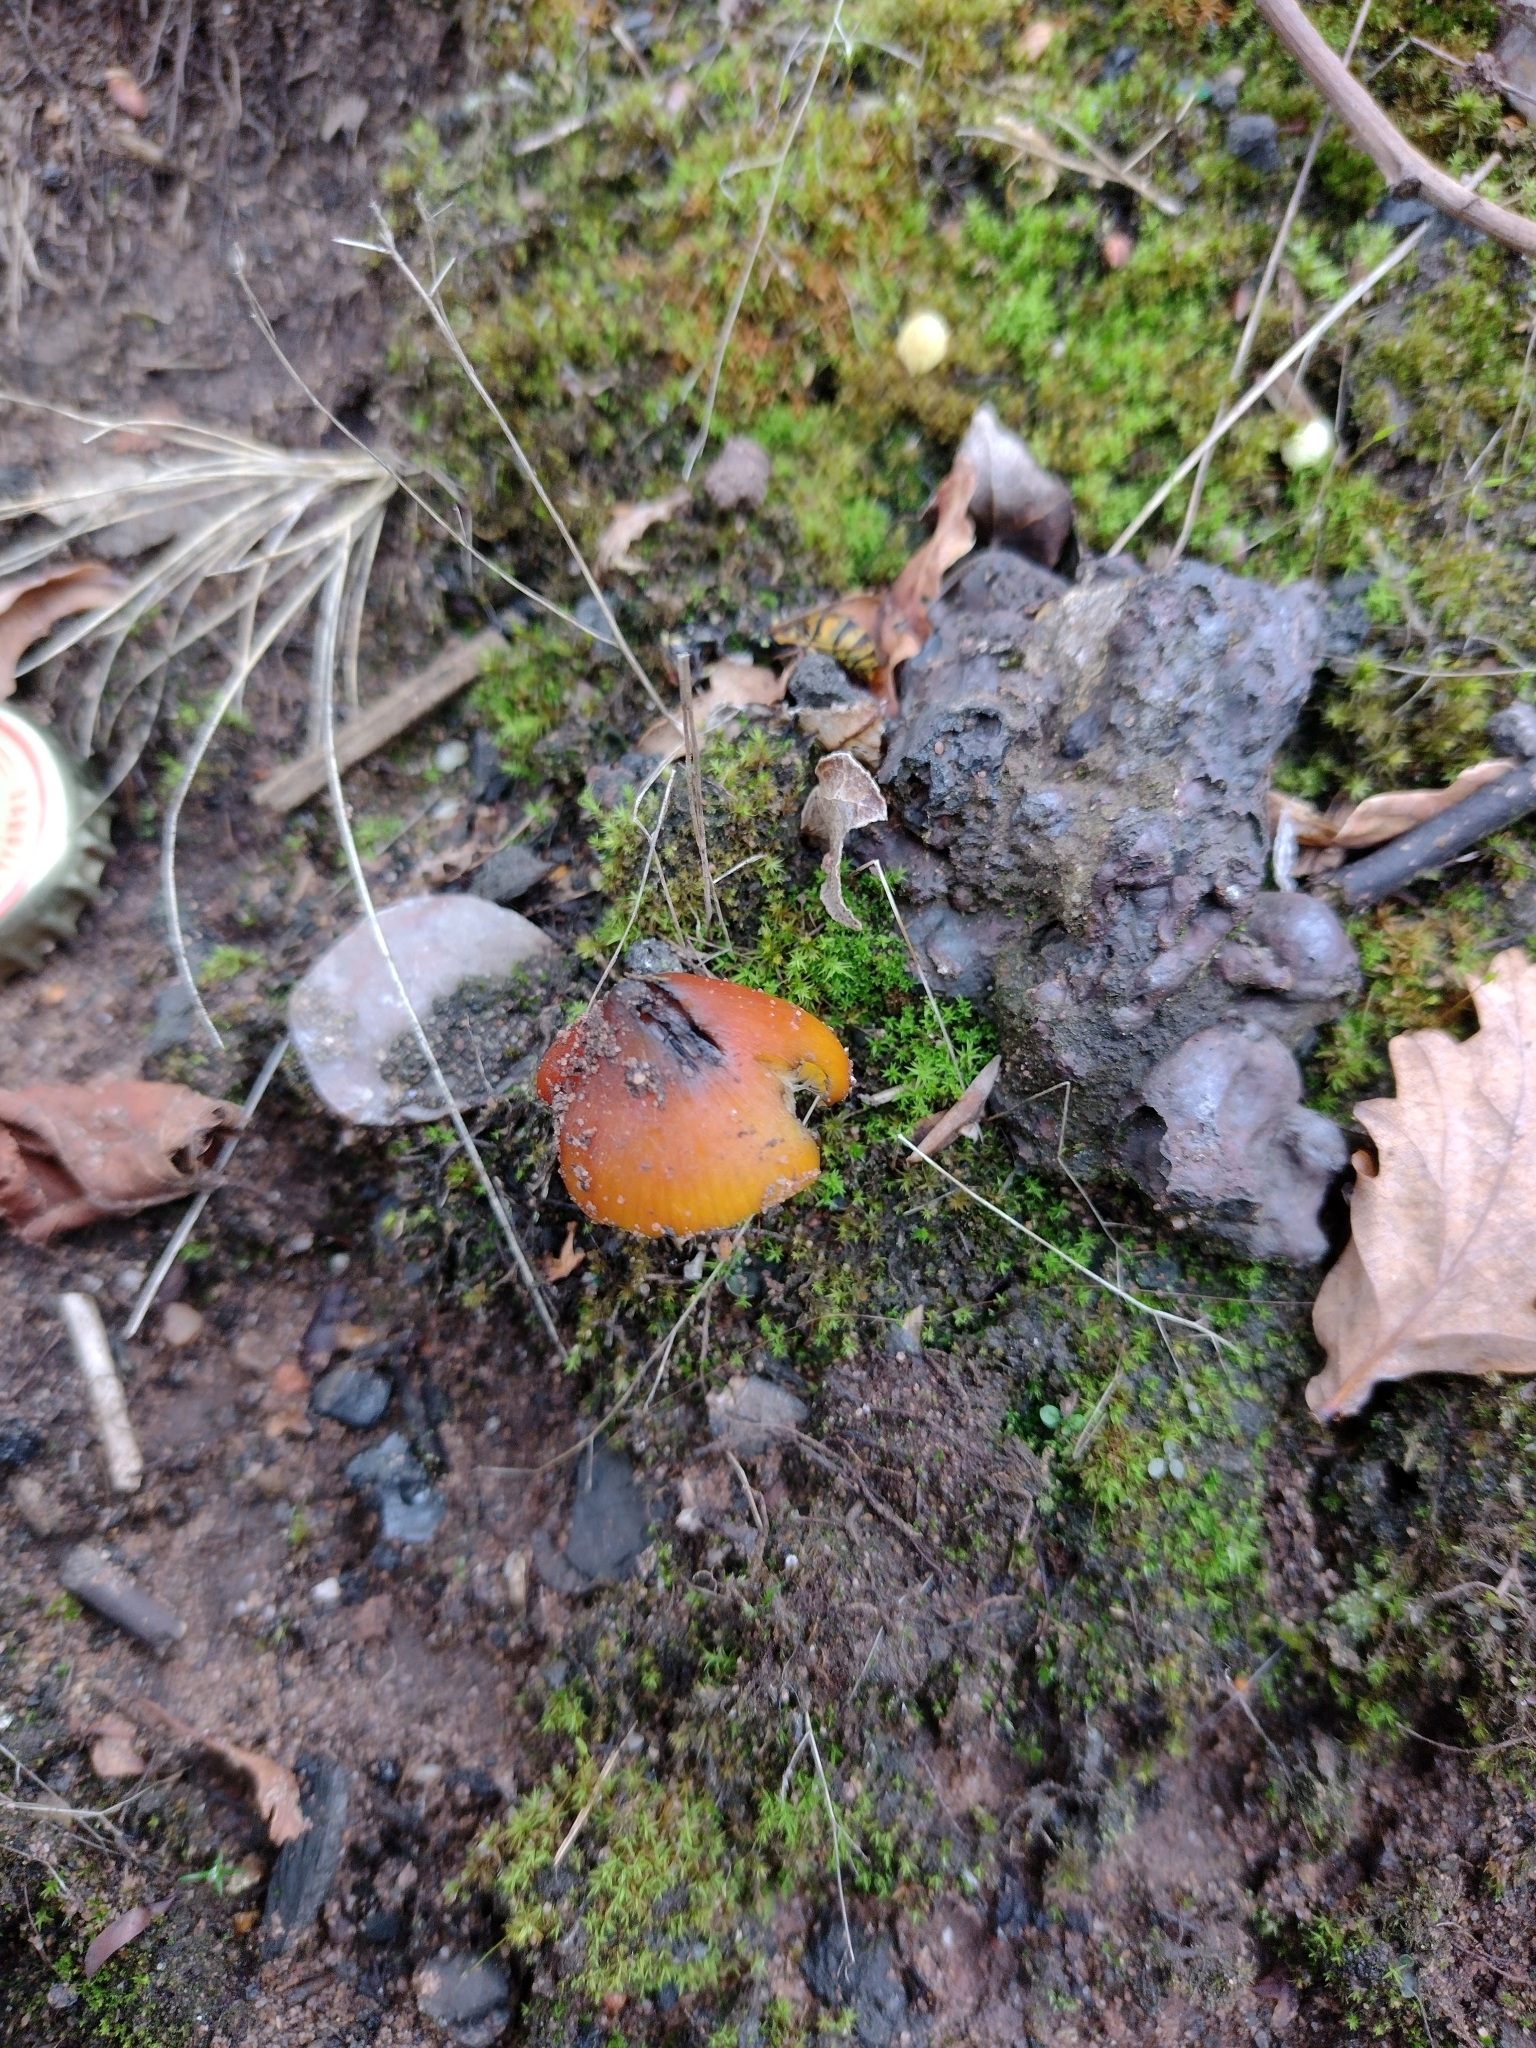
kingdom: Fungi
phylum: Basidiomycota
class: Agaricomycetes
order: Agaricales
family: Hygrophoraceae
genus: Hygrocybe
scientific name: Hygrocybe conica
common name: Blackening wax-cap
